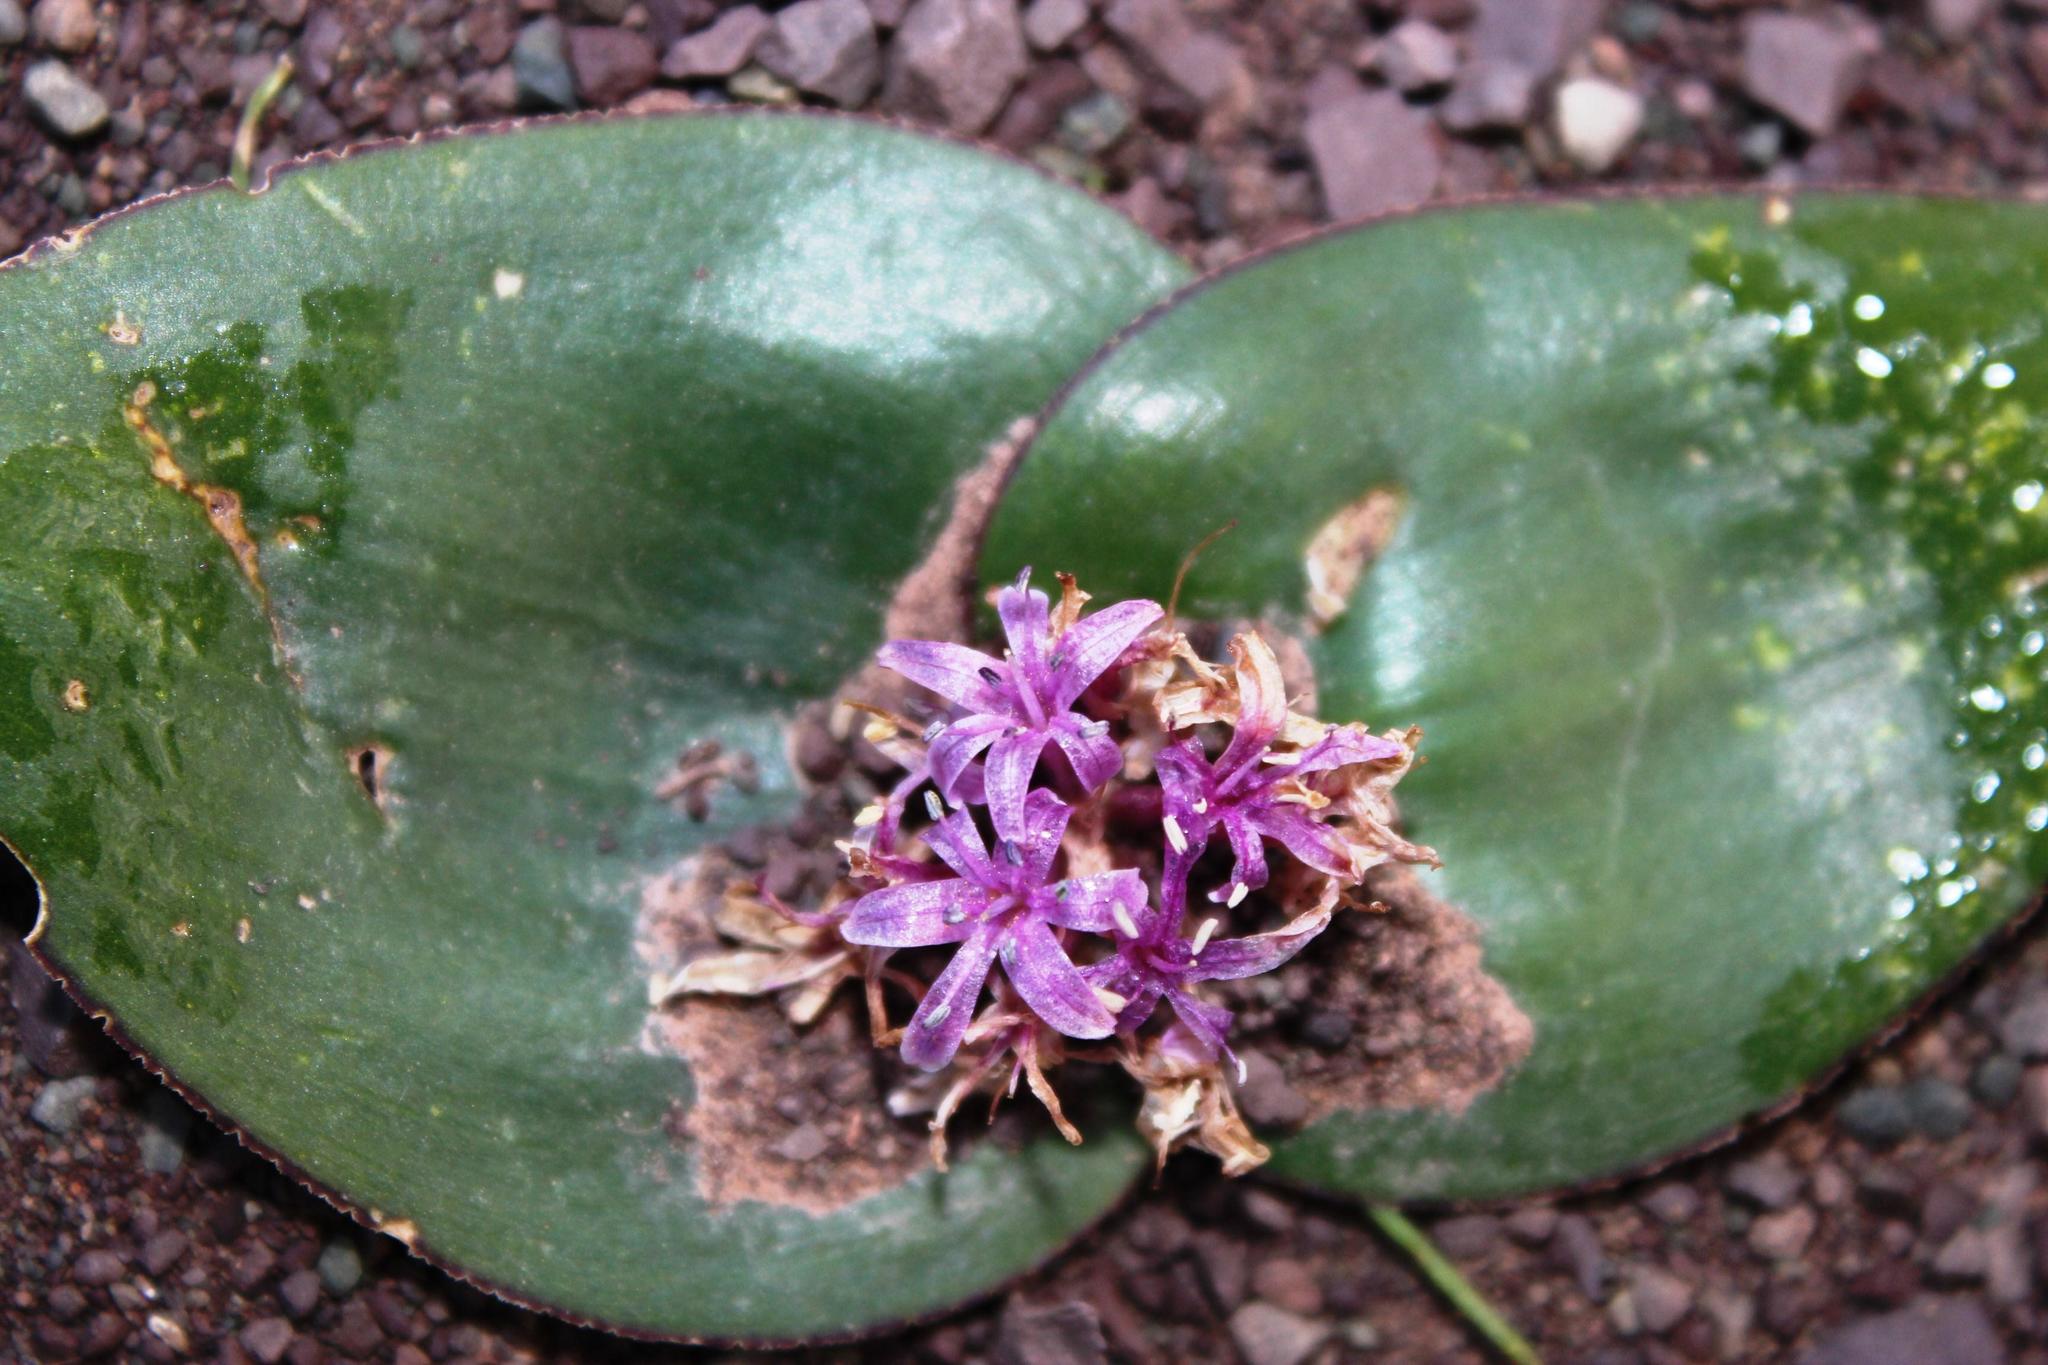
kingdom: Plantae
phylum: Tracheophyta
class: Liliopsida
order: Asparagales
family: Asparagaceae
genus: Lachenalia
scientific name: Lachenalia ensifolia
